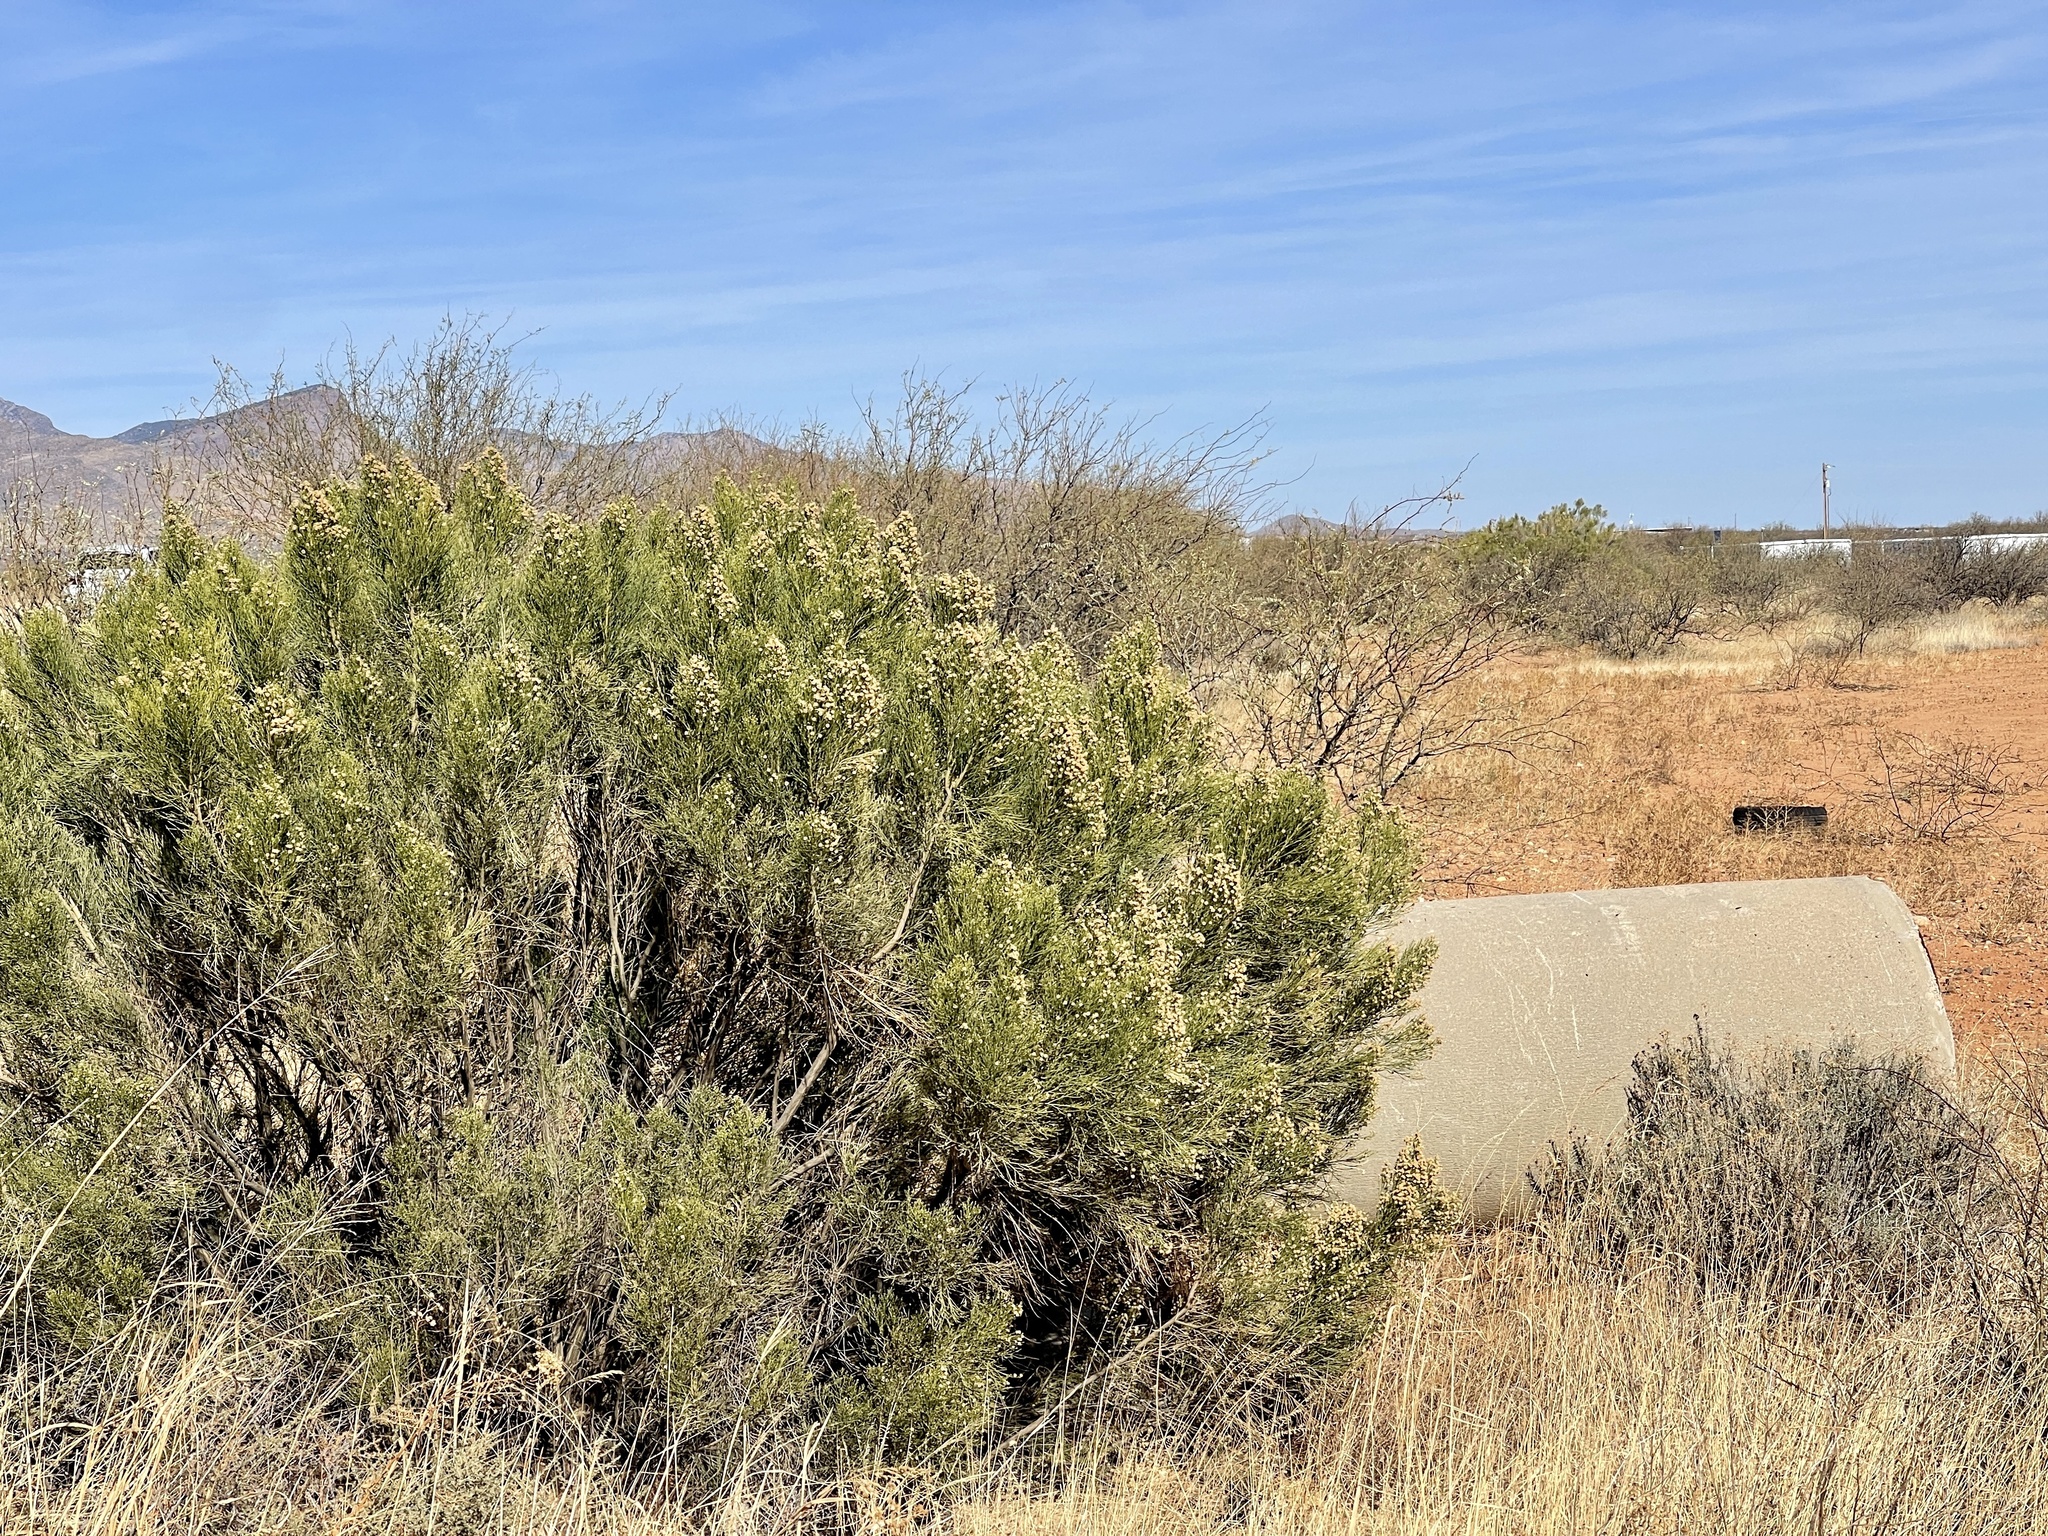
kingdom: Plantae
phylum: Tracheophyta
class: Magnoliopsida
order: Asterales
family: Asteraceae
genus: Baccharis
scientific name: Baccharis sarothroides
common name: Desert-broom
